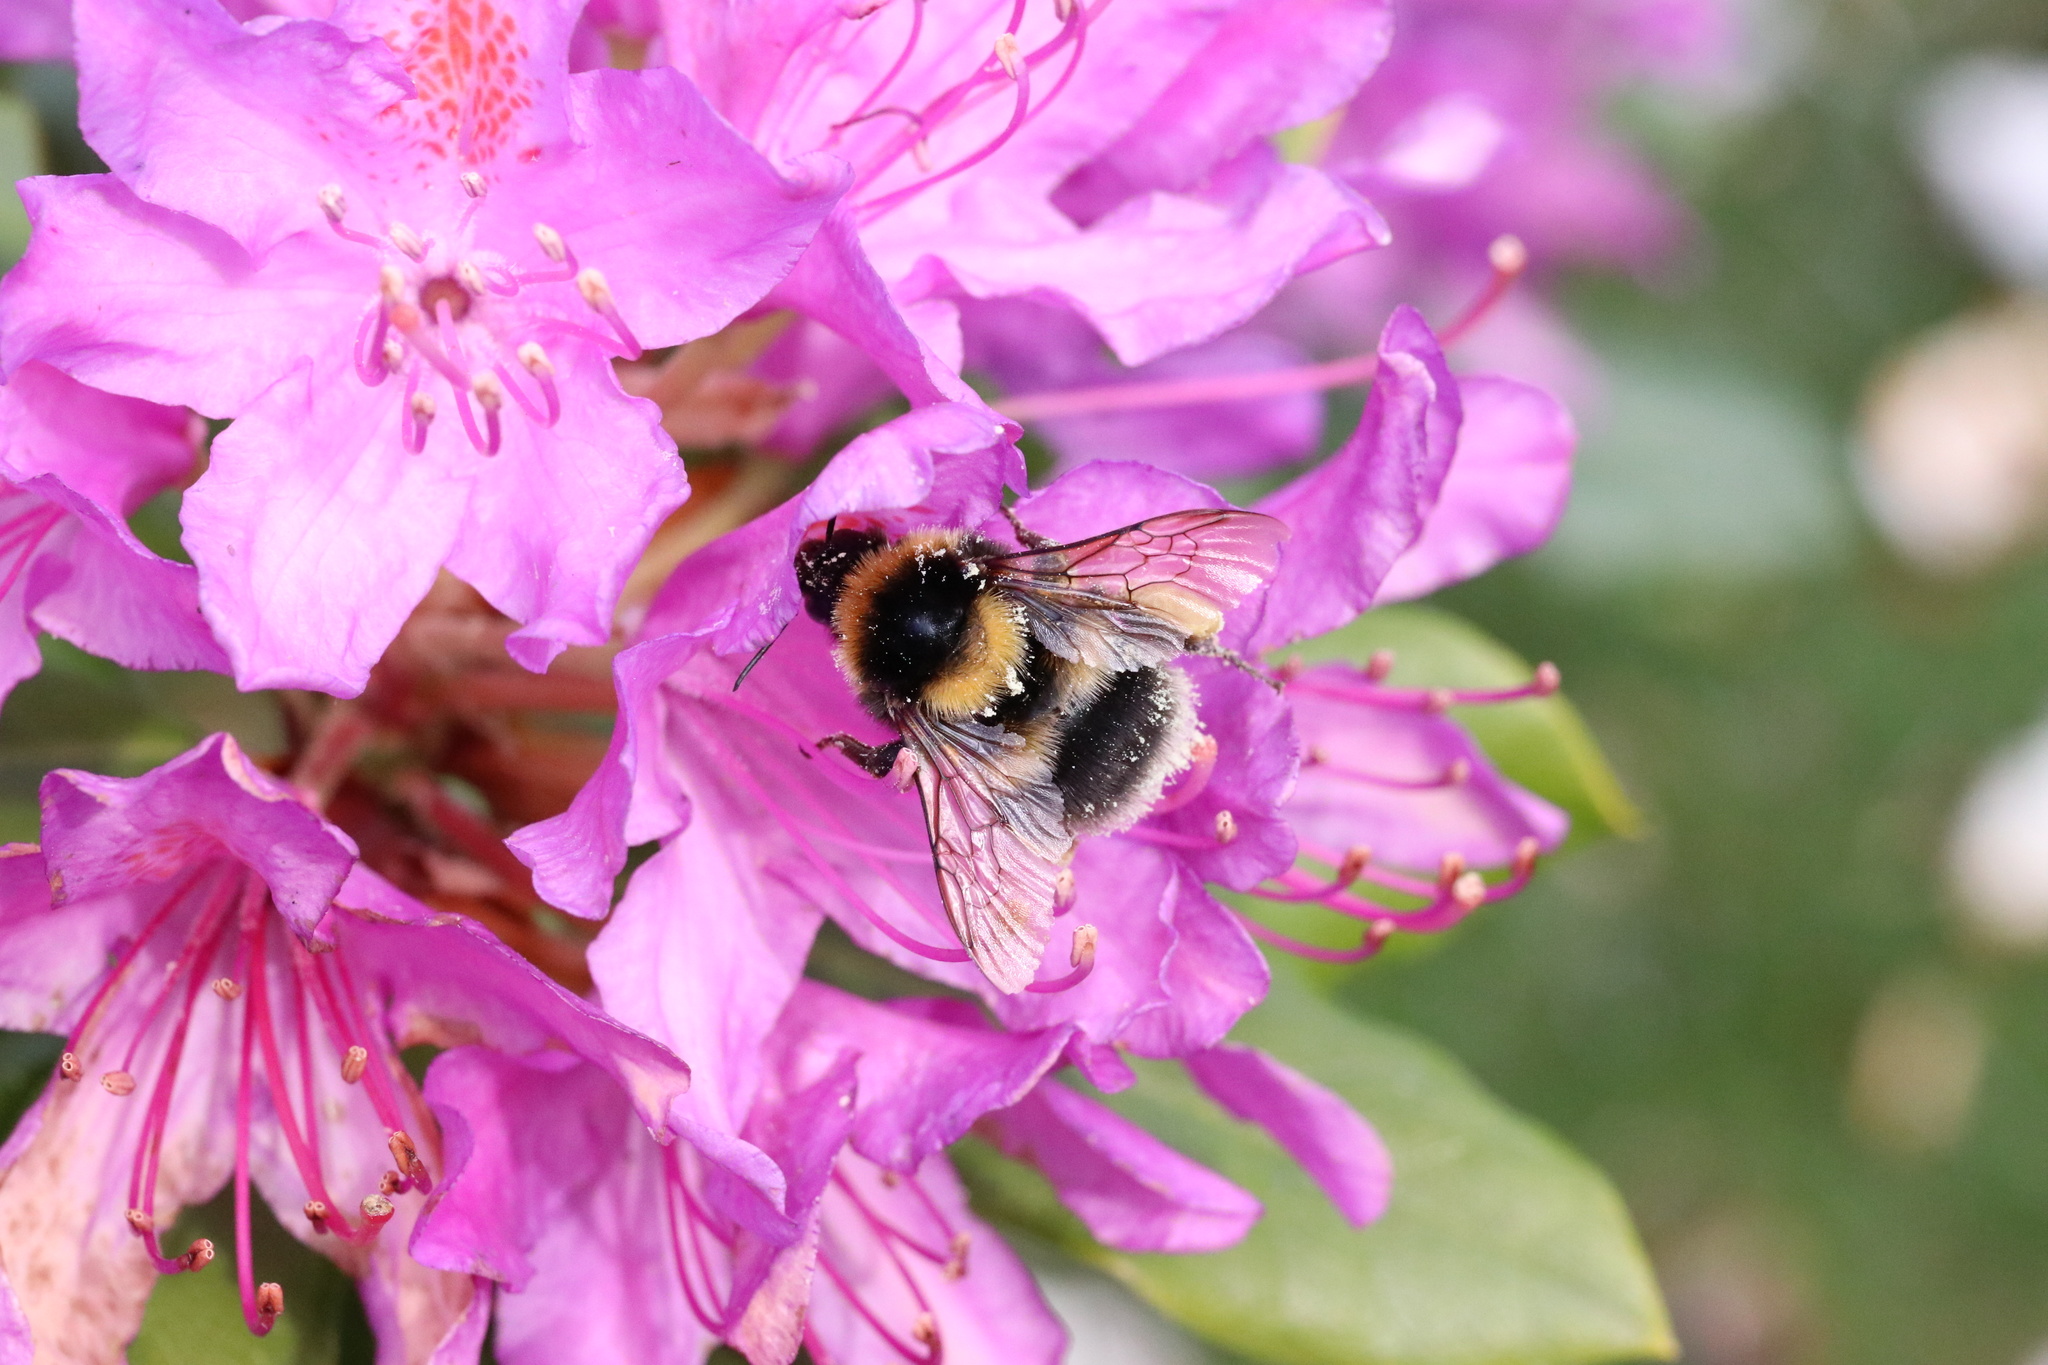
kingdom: Animalia
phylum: Arthropoda
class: Insecta
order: Hymenoptera
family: Apidae
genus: Bombus
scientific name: Bombus ruderatus
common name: Large garden bumblebee
